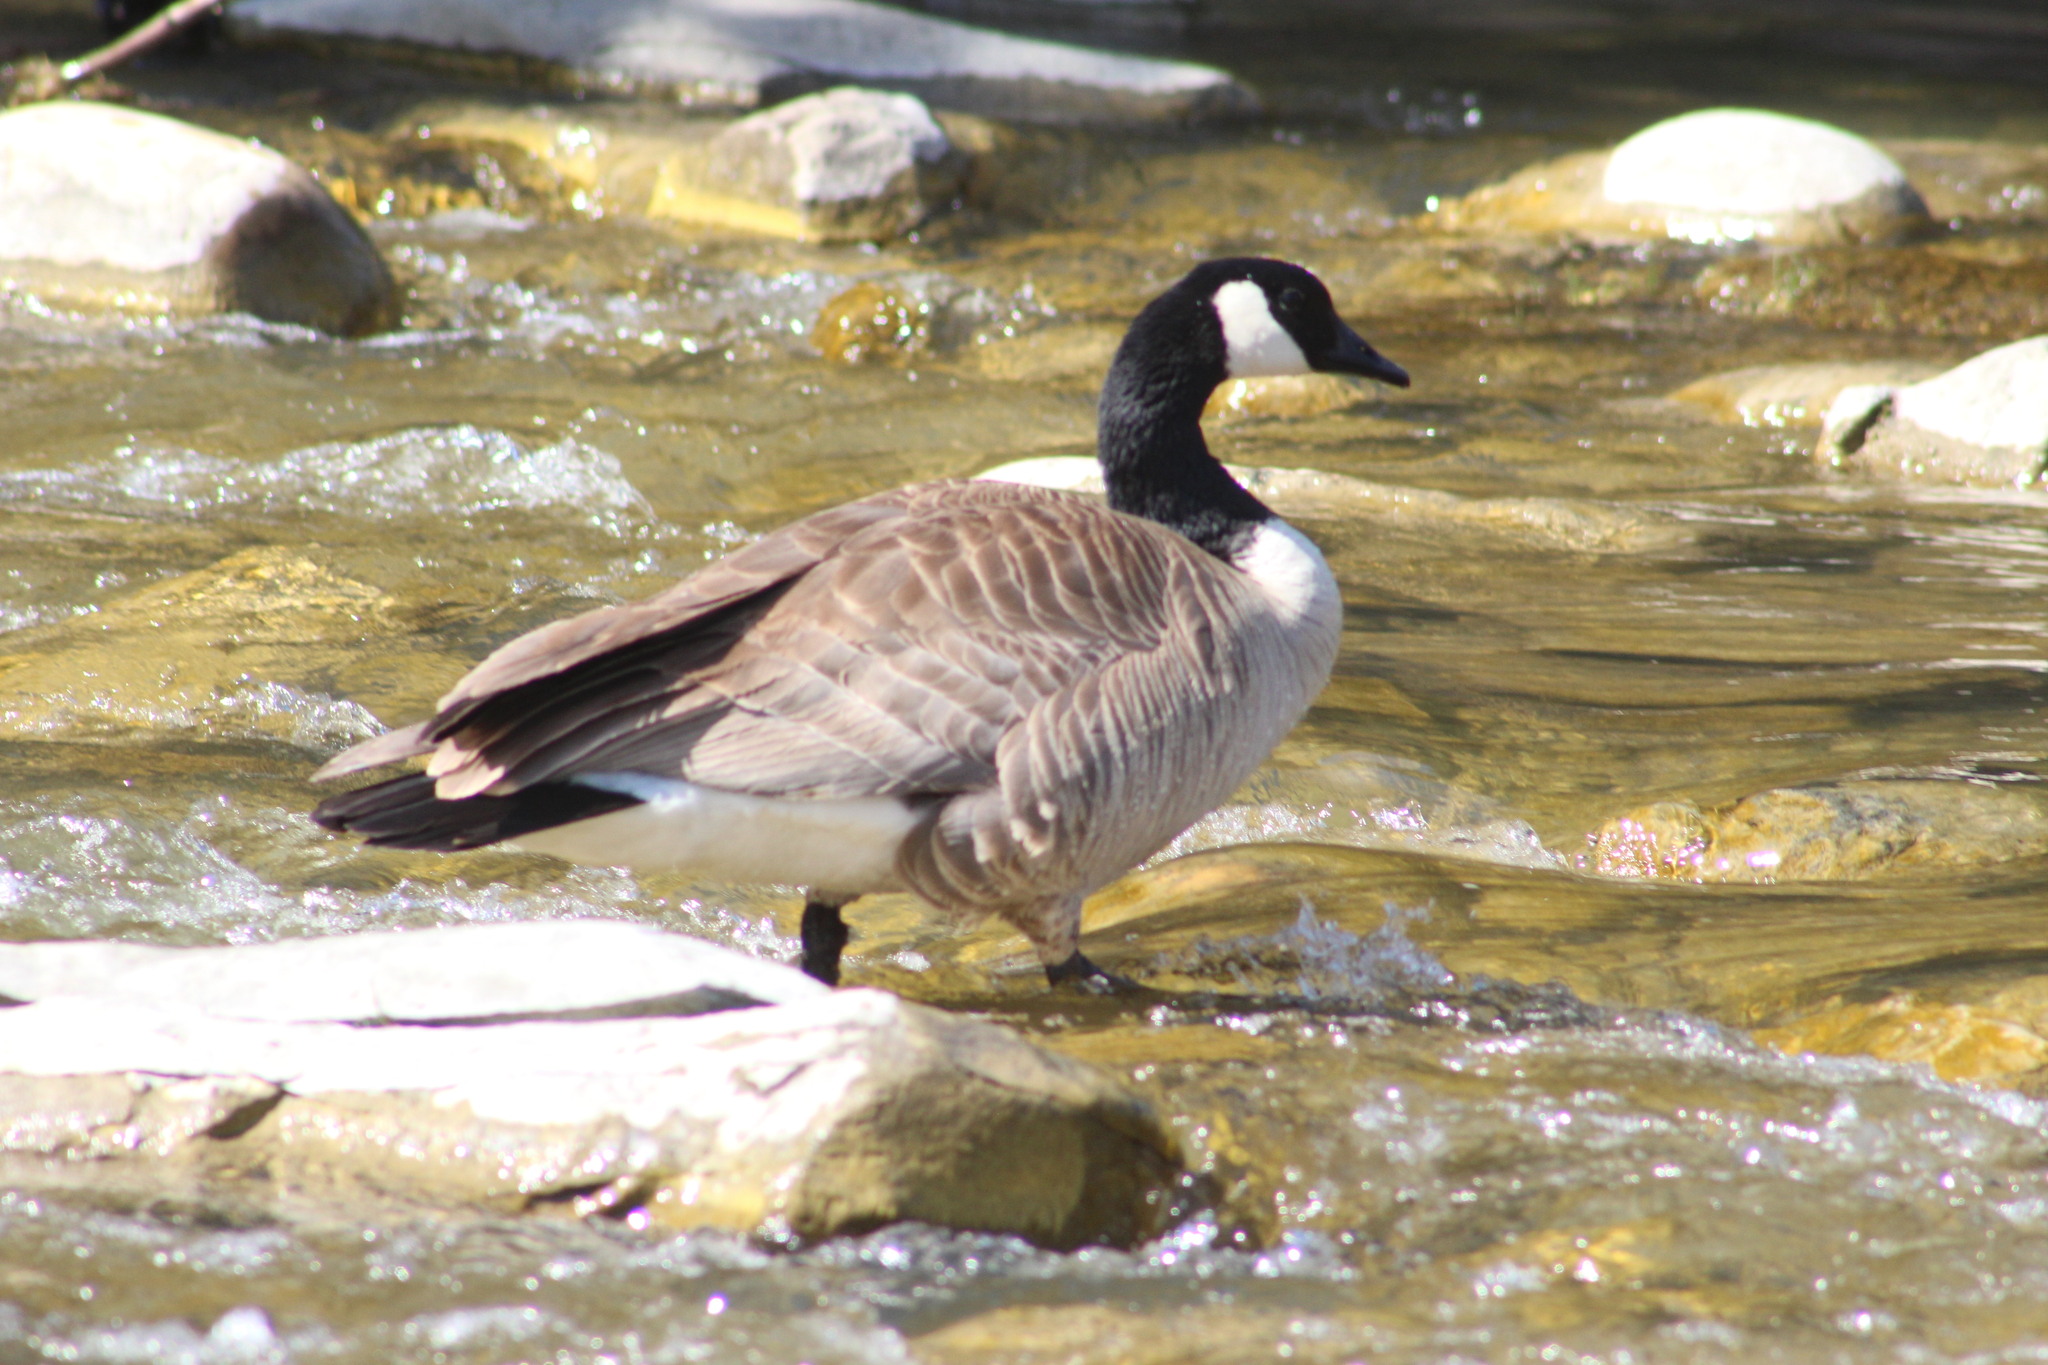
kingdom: Animalia
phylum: Chordata
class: Aves
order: Anseriformes
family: Anatidae
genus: Branta
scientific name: Branta canadensis
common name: Canada goose
